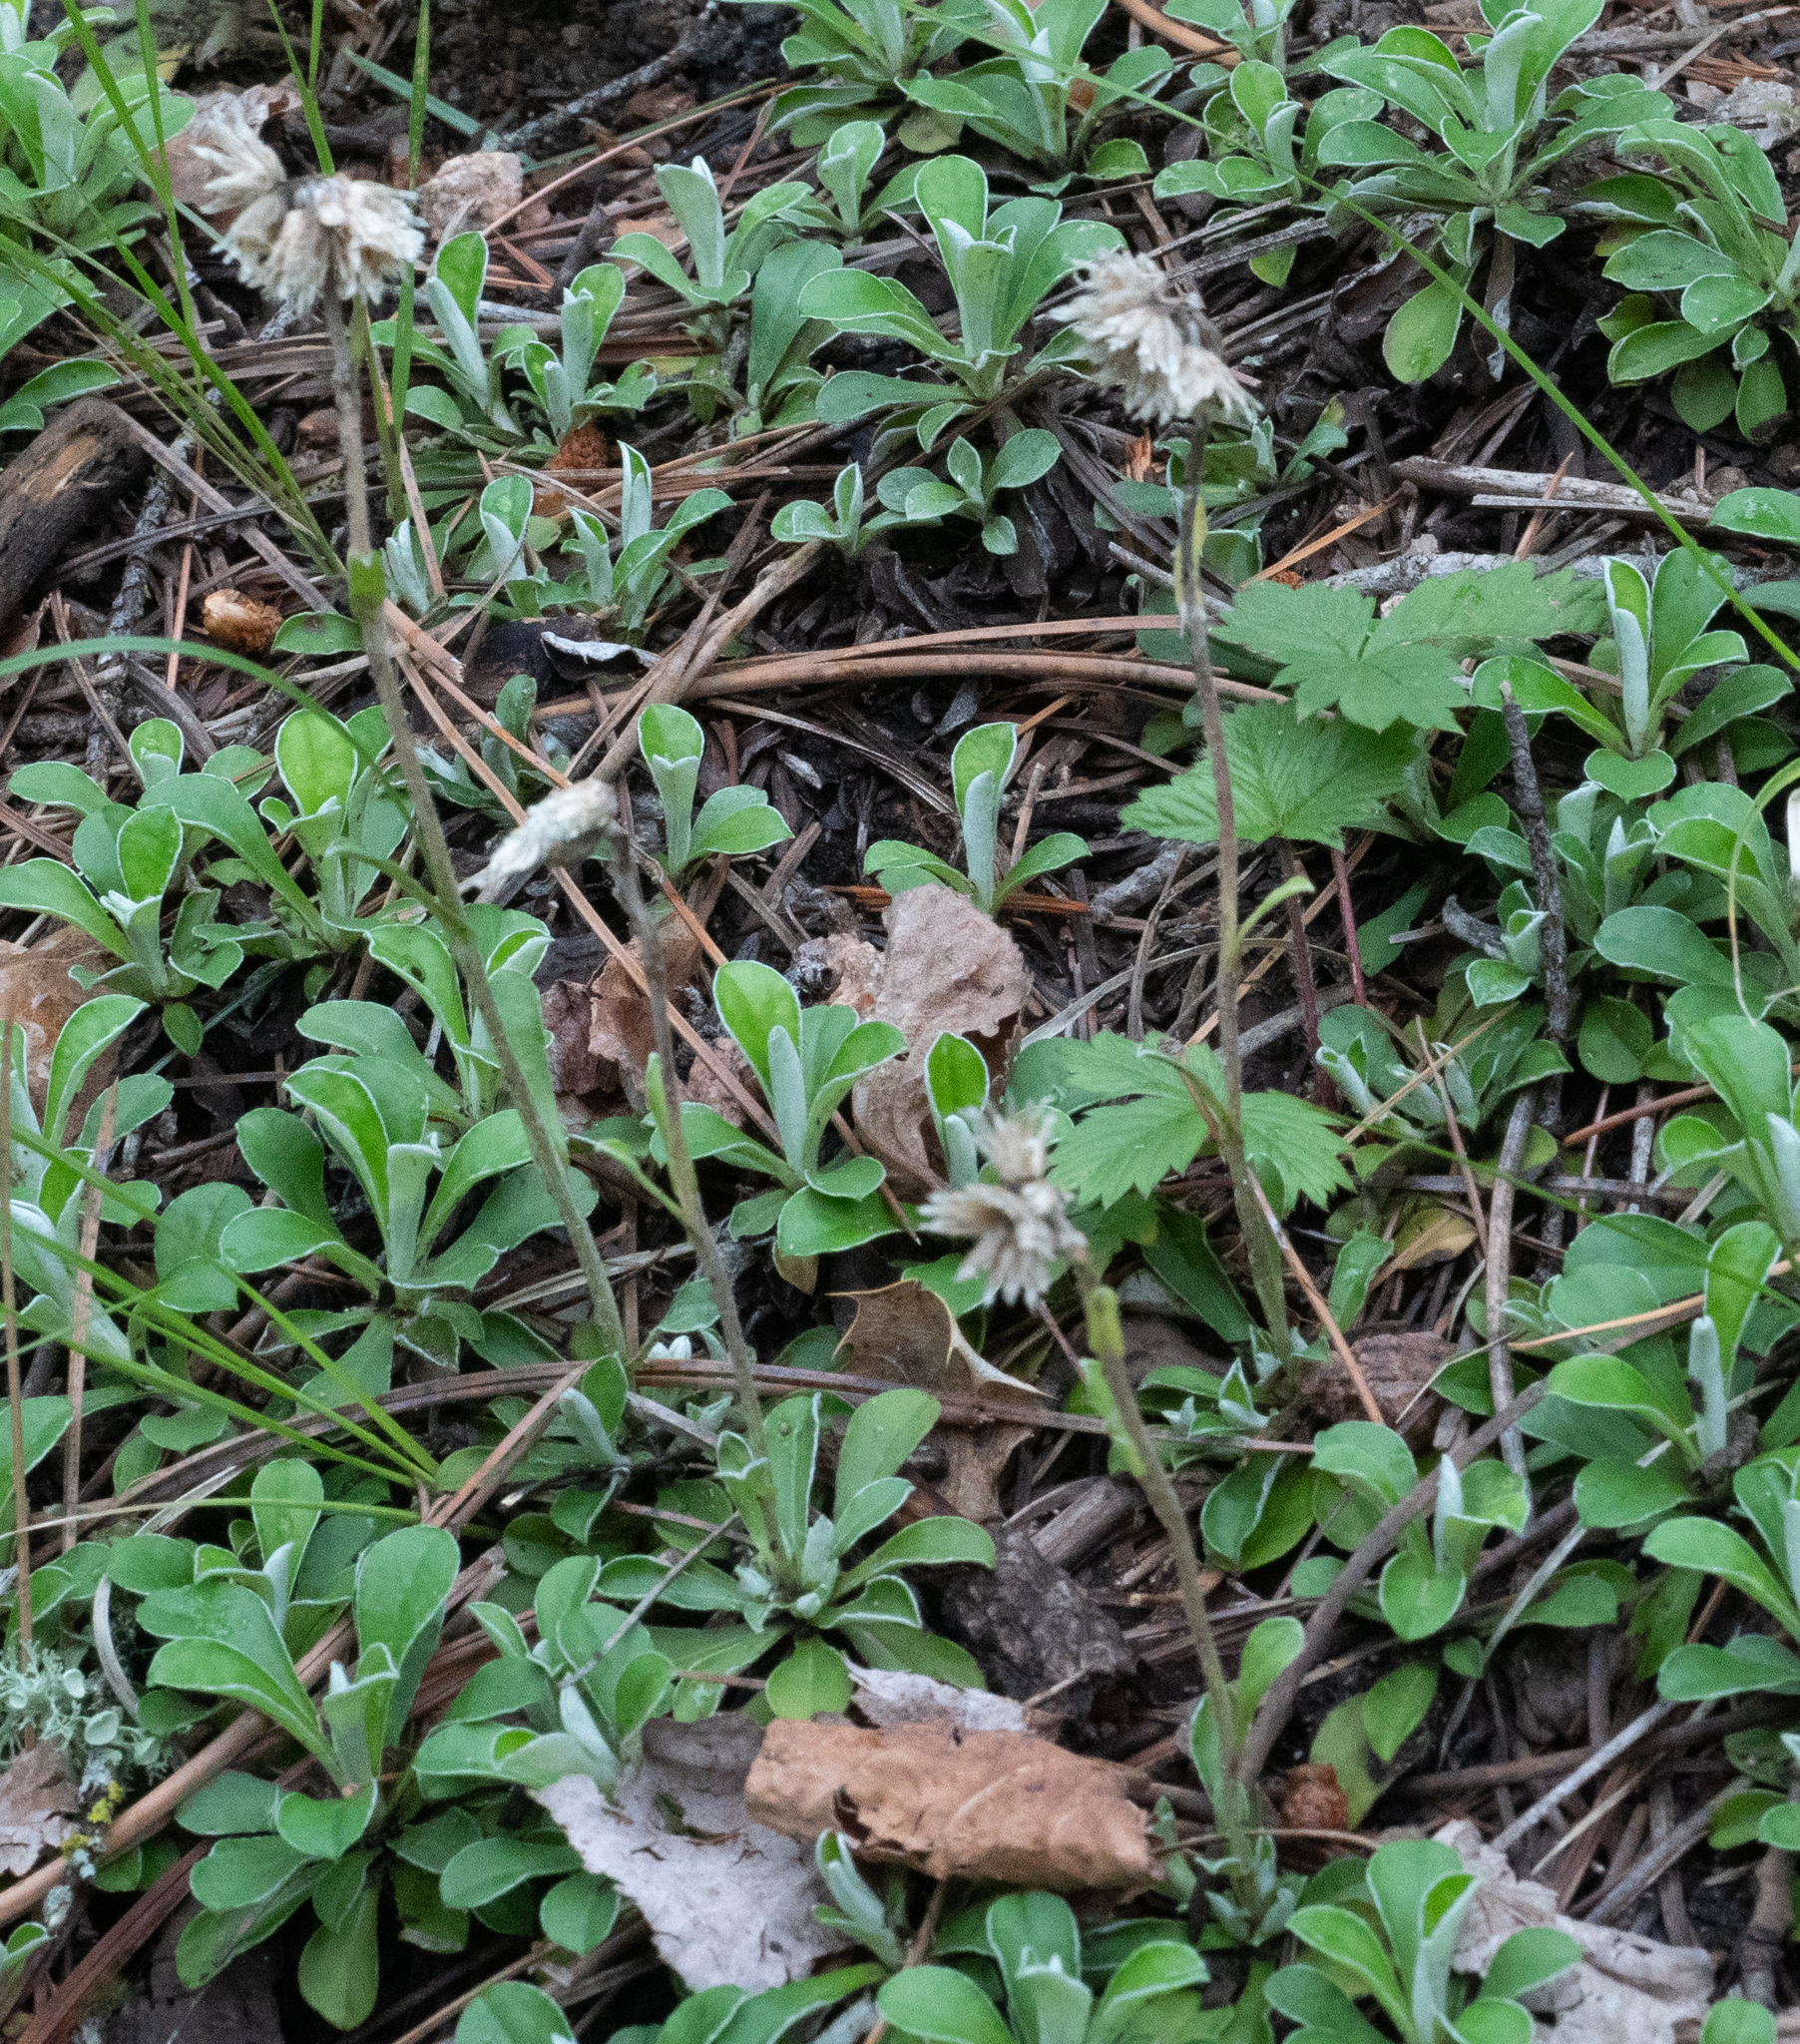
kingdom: Plantae
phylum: Tracheophyta
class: Magnoliopsida
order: Asterales
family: Asteraceae
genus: Antennaria
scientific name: Antennaria marginata
